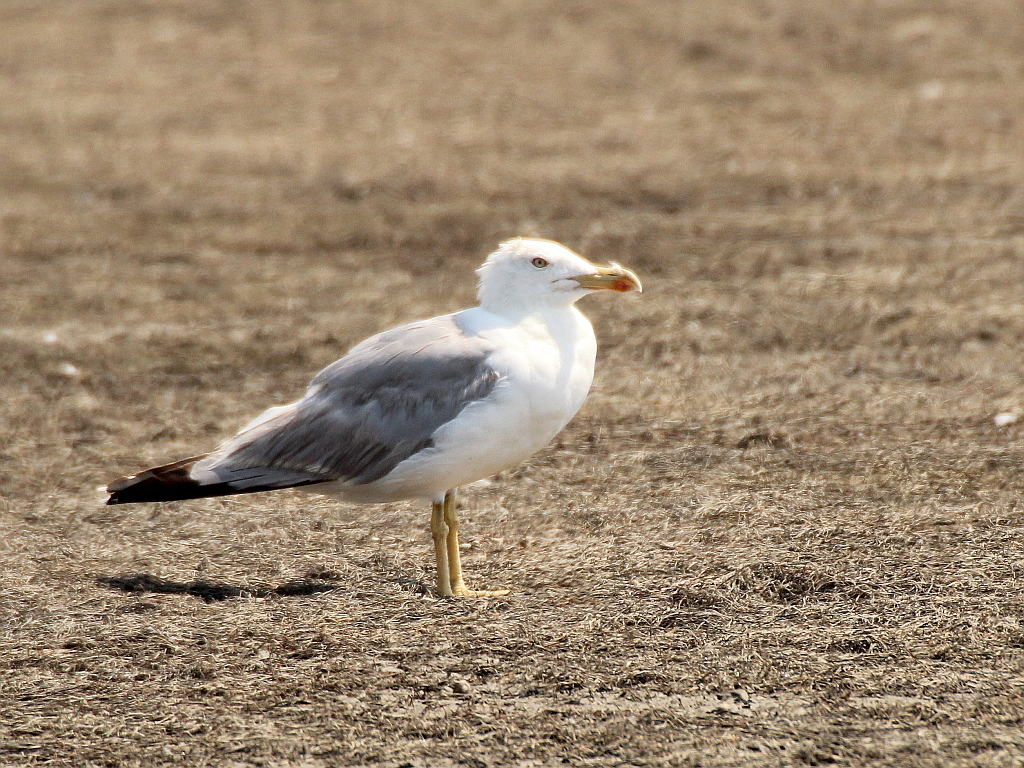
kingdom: Animalia
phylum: Chordata
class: Aves
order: Charadriiformes
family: Laridae
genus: Larus
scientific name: Larus michahellis
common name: Yellow-legged gull
